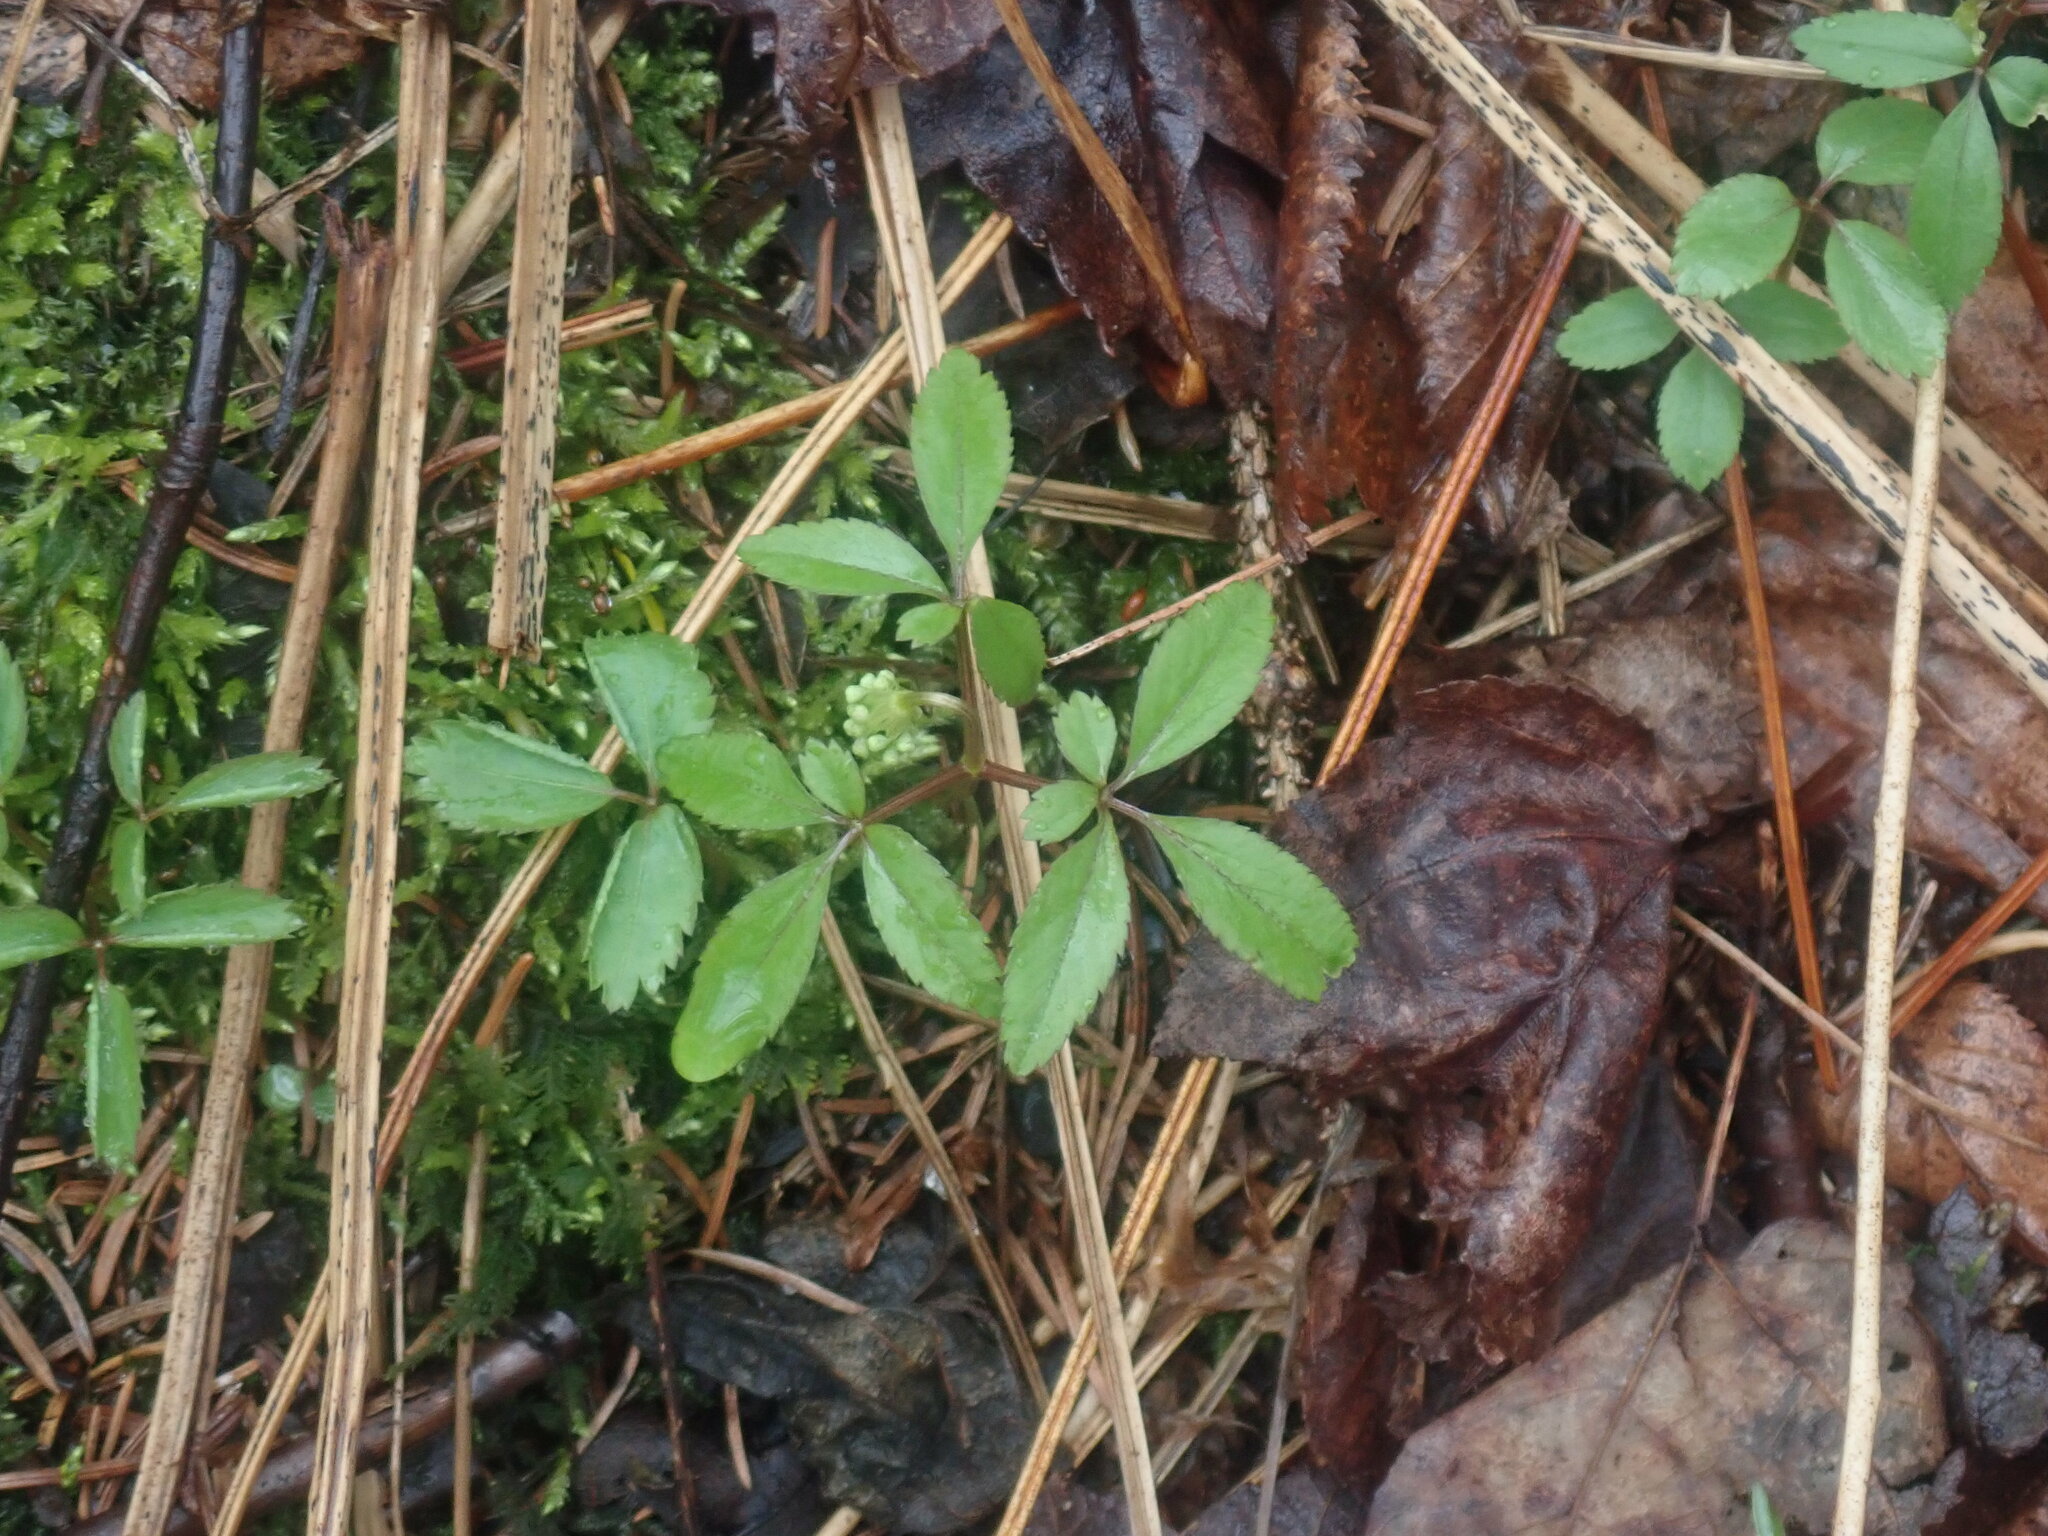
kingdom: Plantae
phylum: Tracheophyta
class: Magnoliopsida
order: Apiales
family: Araliaceae
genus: Panax
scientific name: Panax trifolius
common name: Dwarf ginseng
